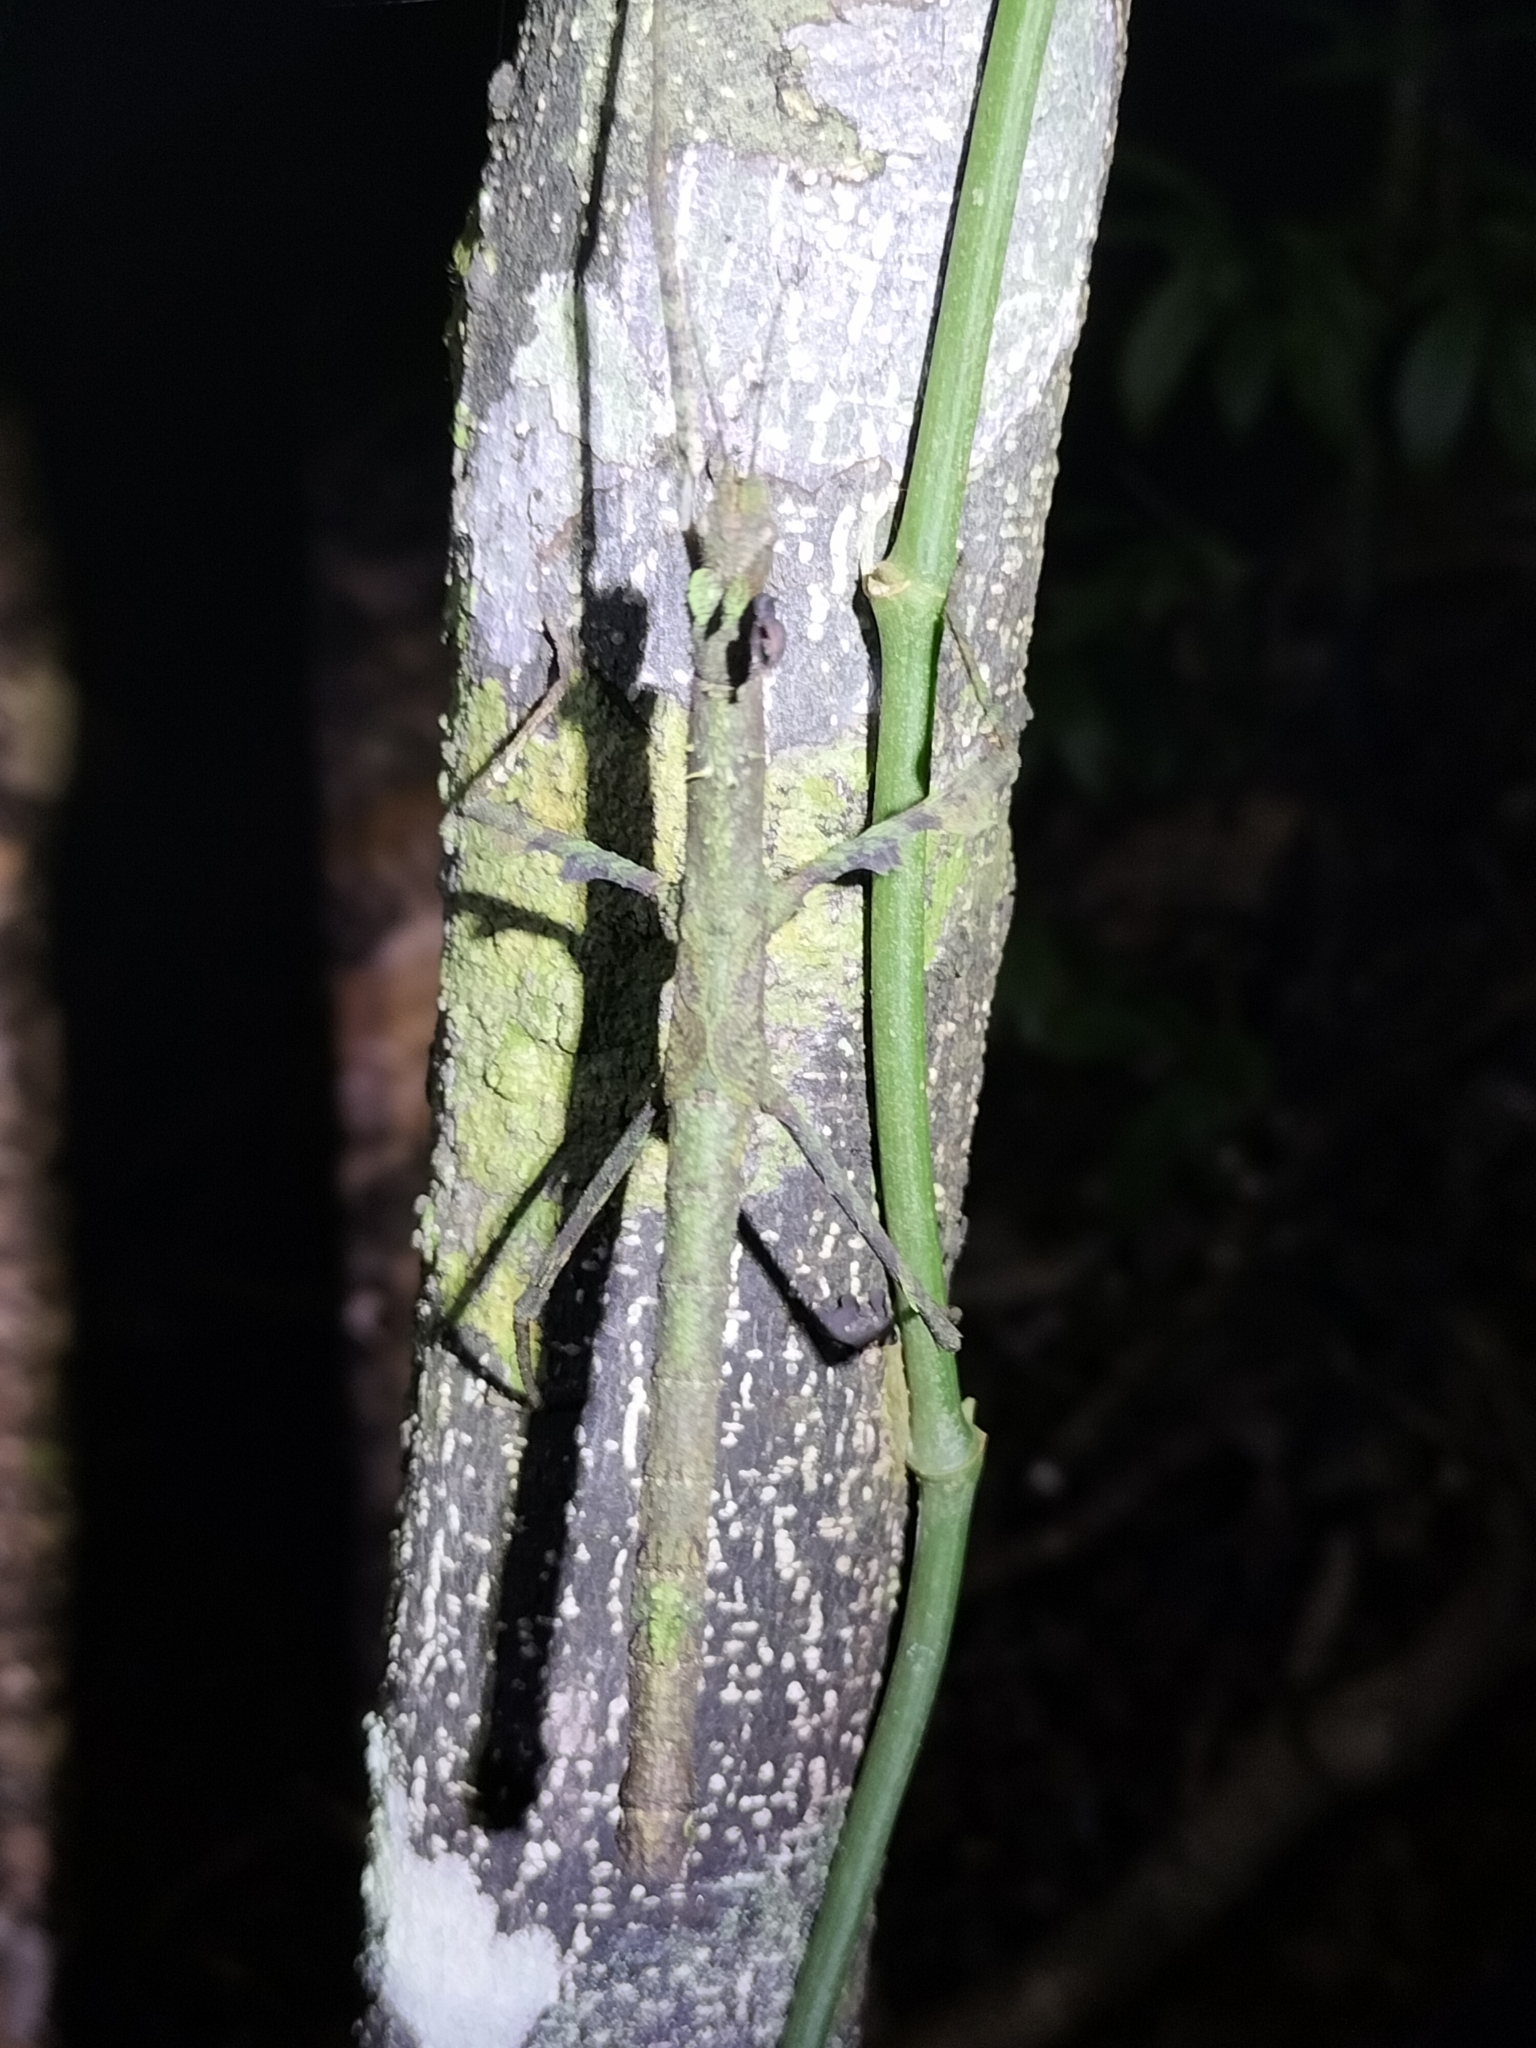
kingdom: Animalia
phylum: Arthropoda
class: Insecta
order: Phasmida
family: Phasmatidae
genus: Onchestus
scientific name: Onchestus rentzi
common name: Rentz's stick-insect
